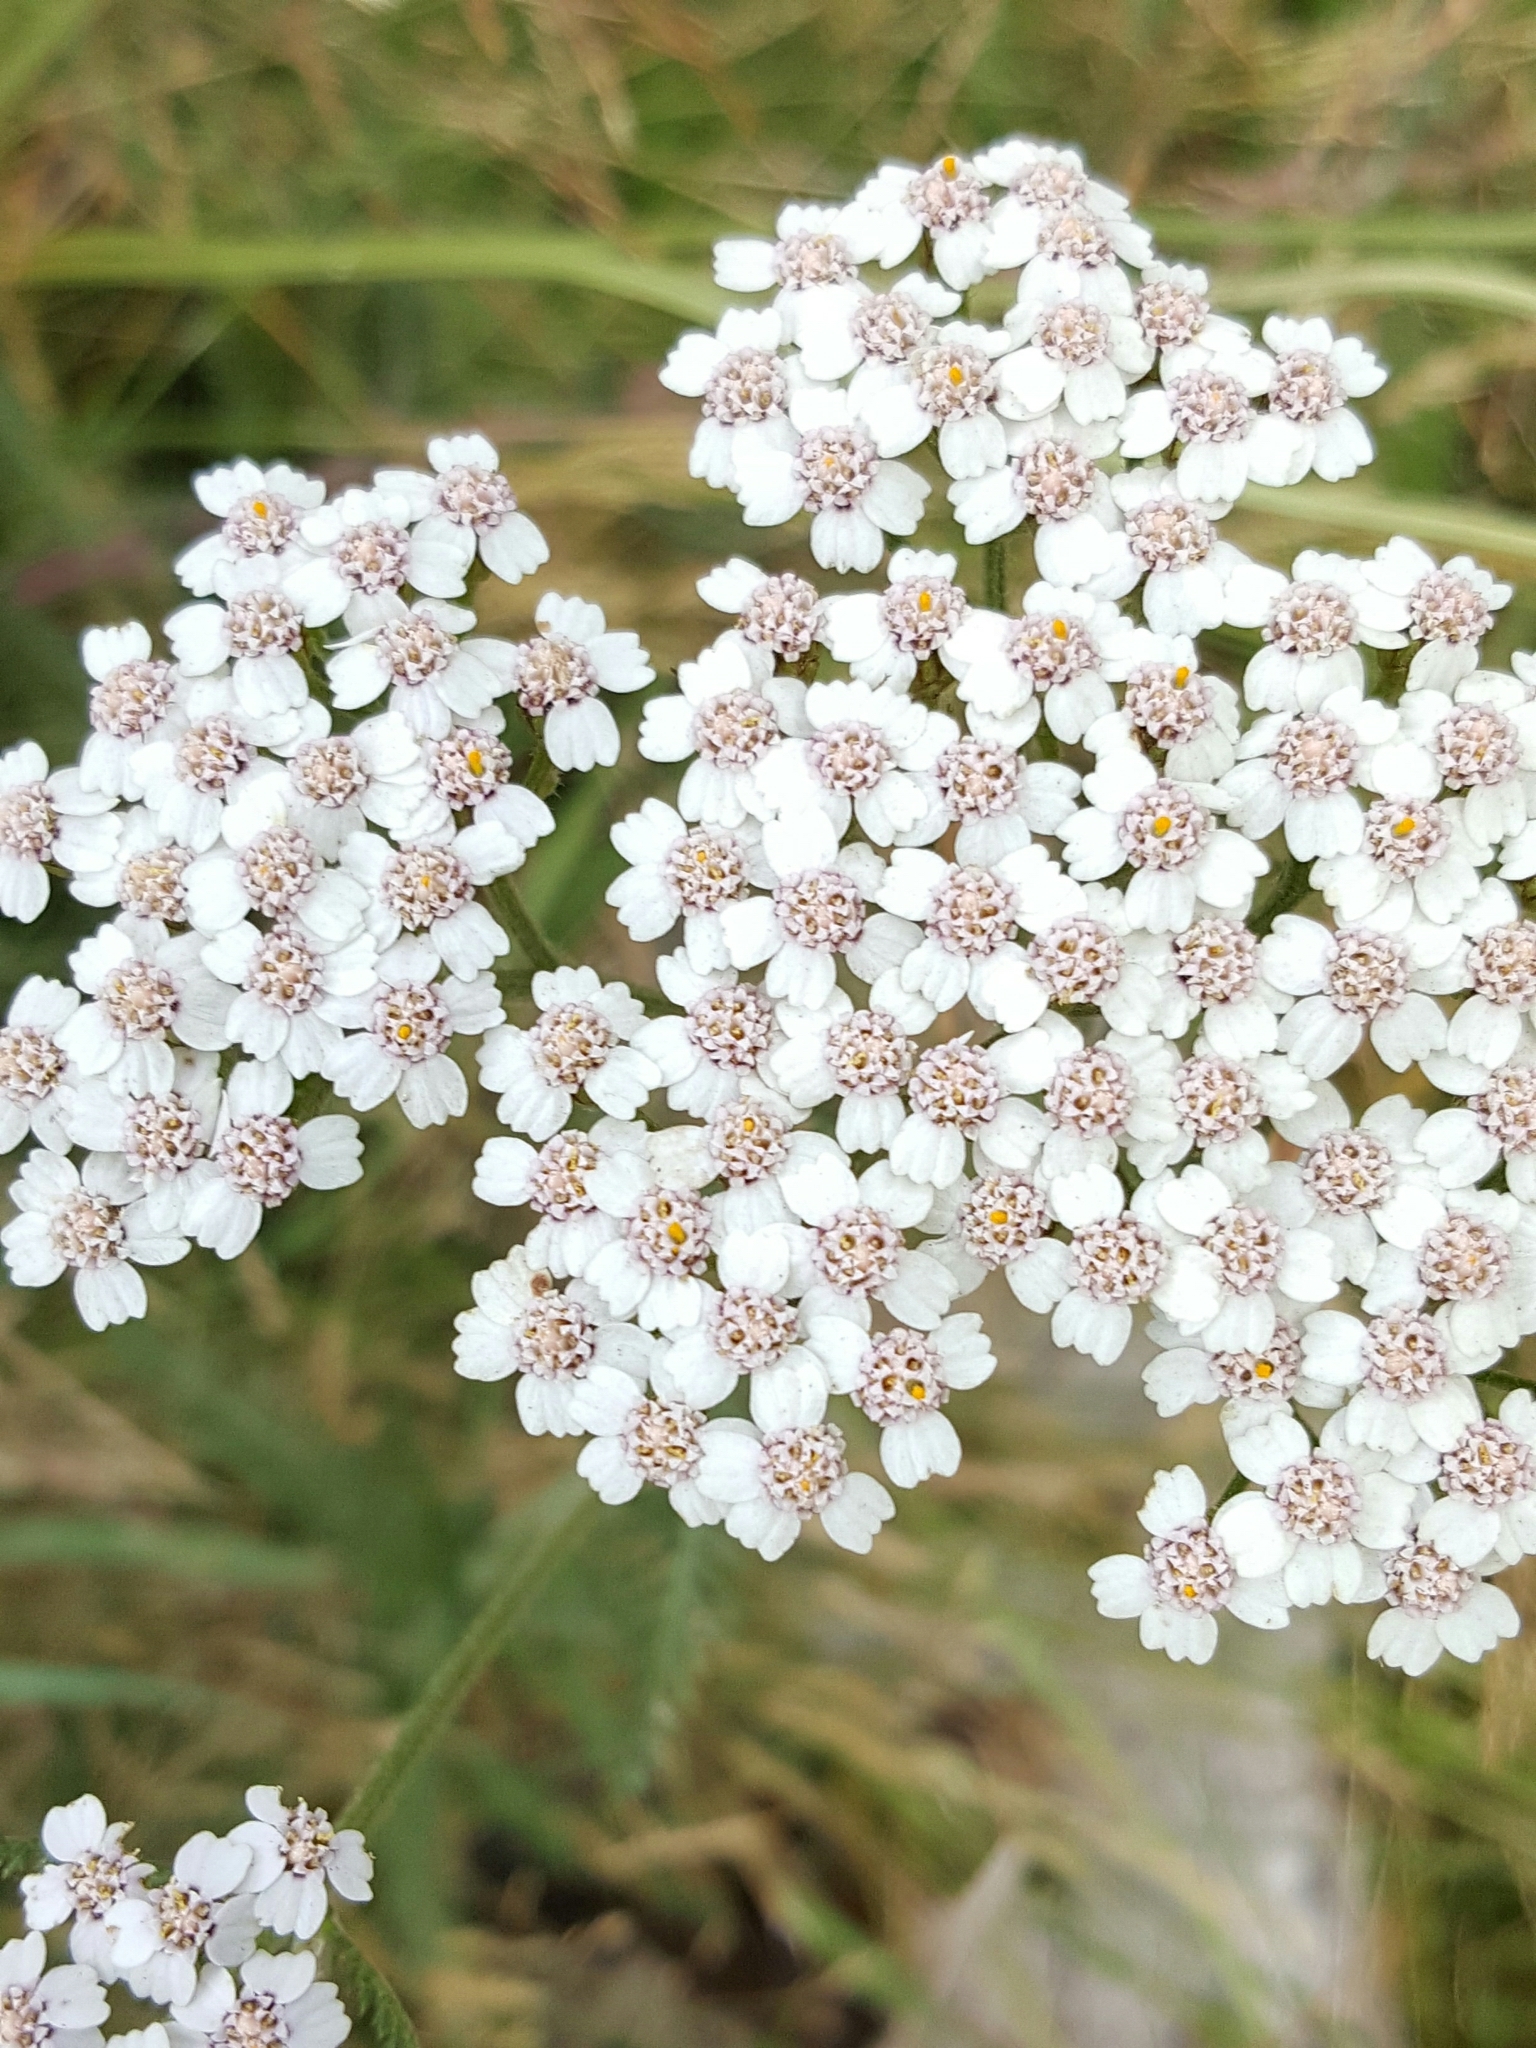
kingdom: Plantae
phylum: Tracheophyta
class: Magnoliopsida
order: Asterales
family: Asteraceae
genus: Achillea
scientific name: Achillea millefolium
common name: Yarrow
